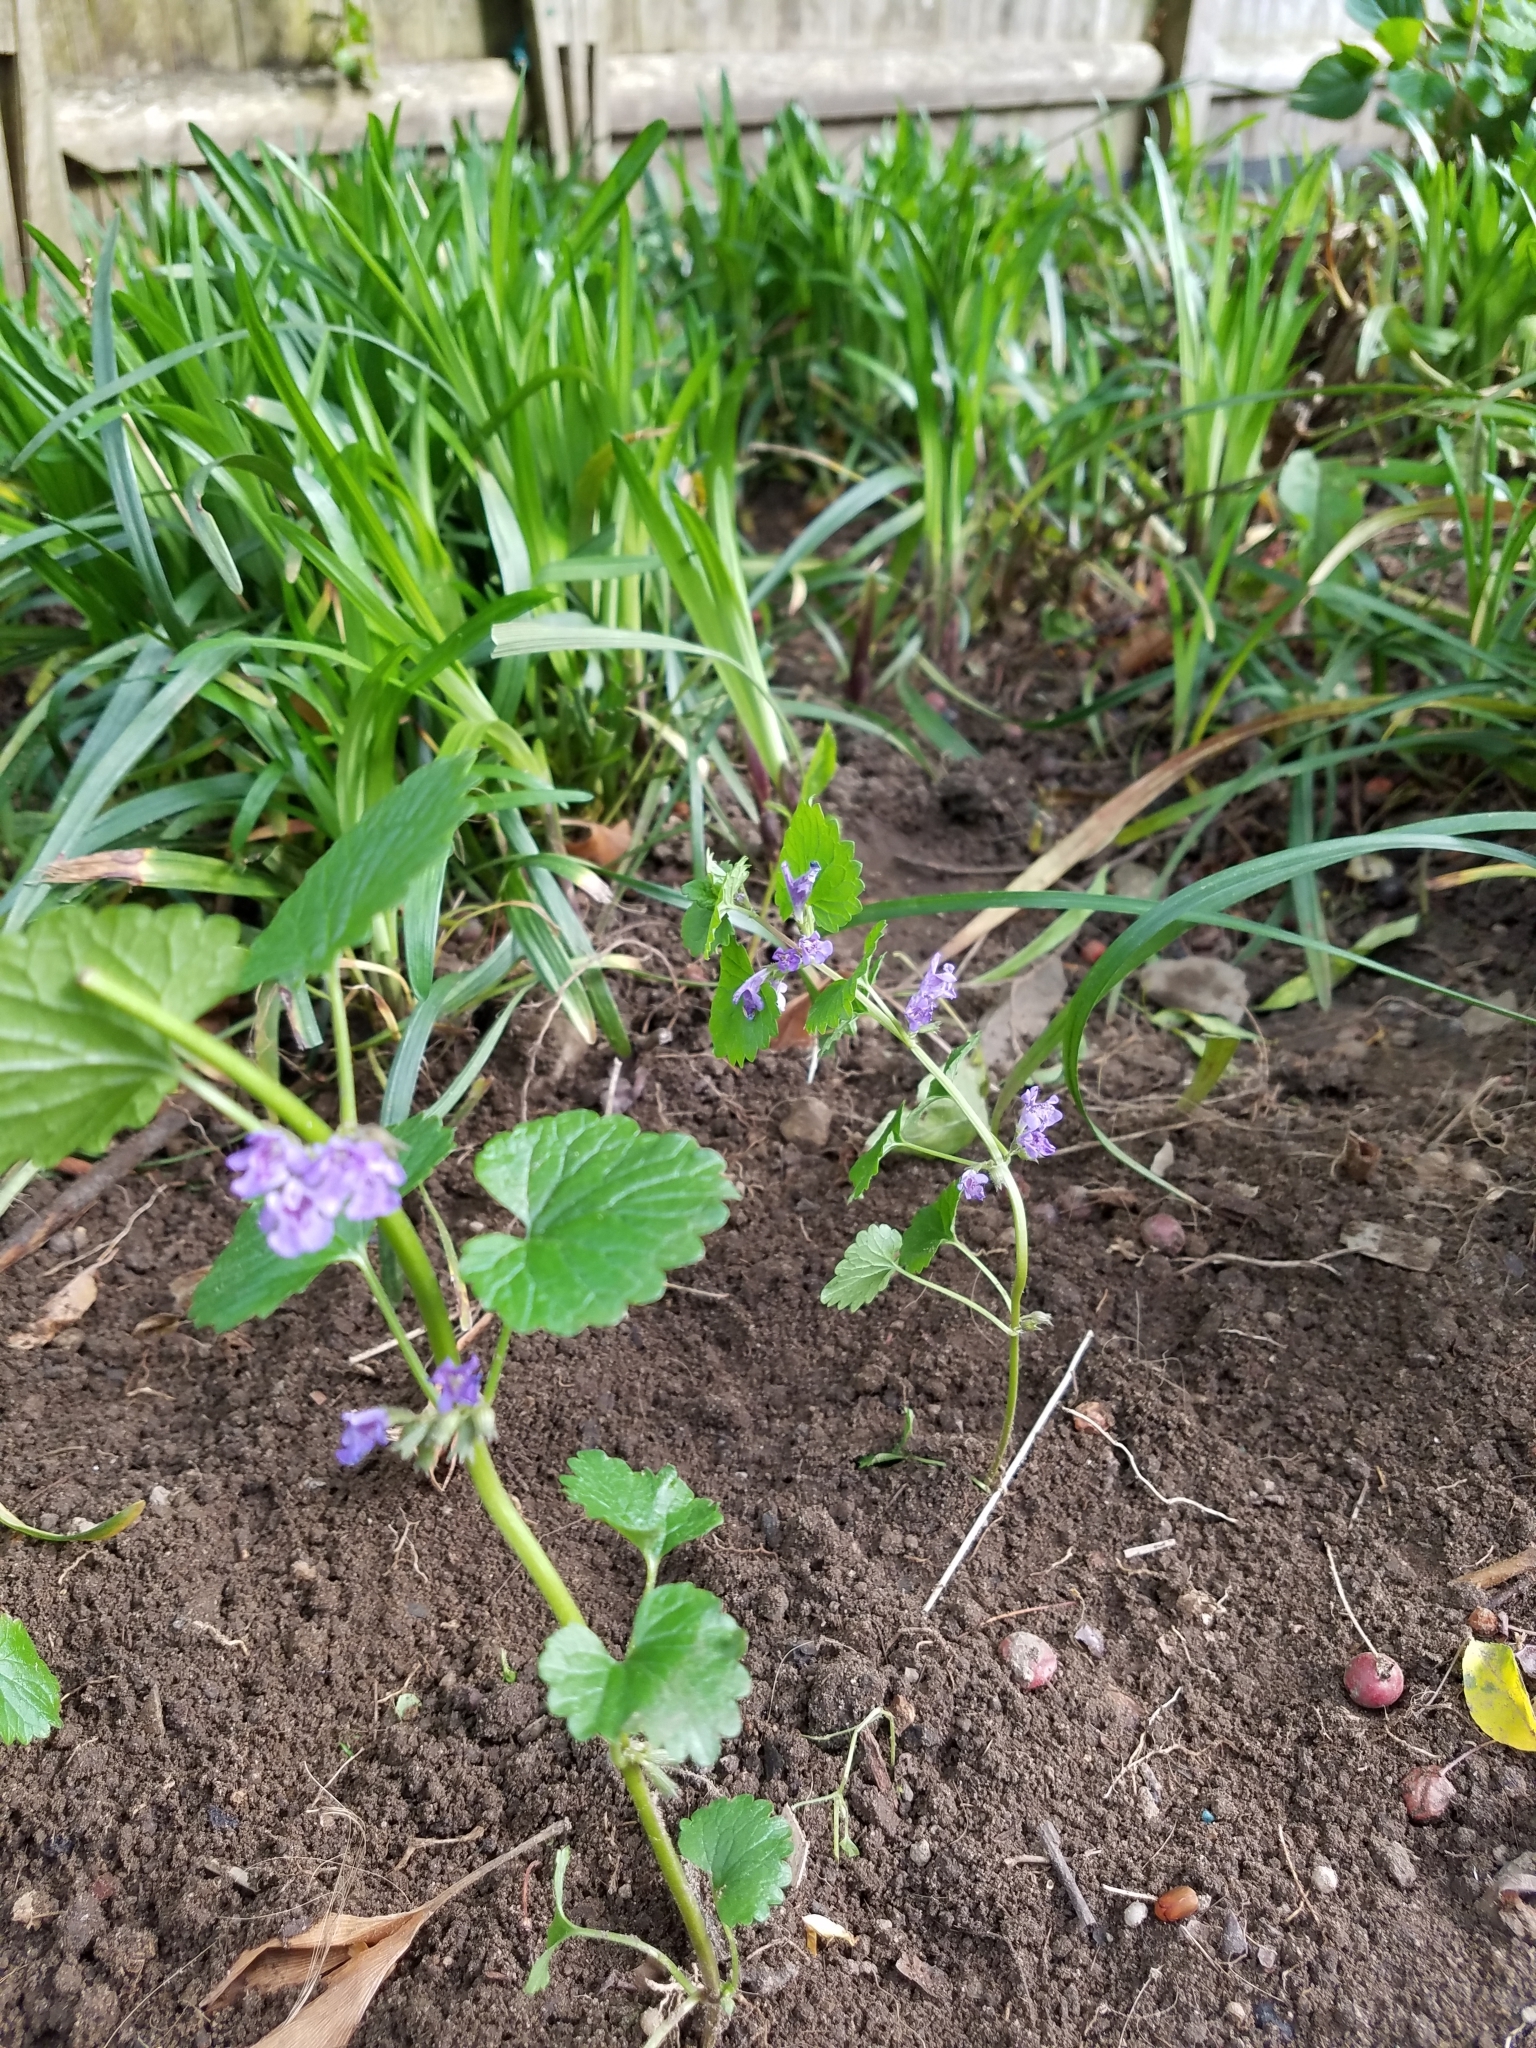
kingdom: Plantae
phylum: Tracheophyta
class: Magnoliopsida
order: Lamiales
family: Lamiaceae
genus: Glechoma
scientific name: Glechoma hederacea
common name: Ground ivy
